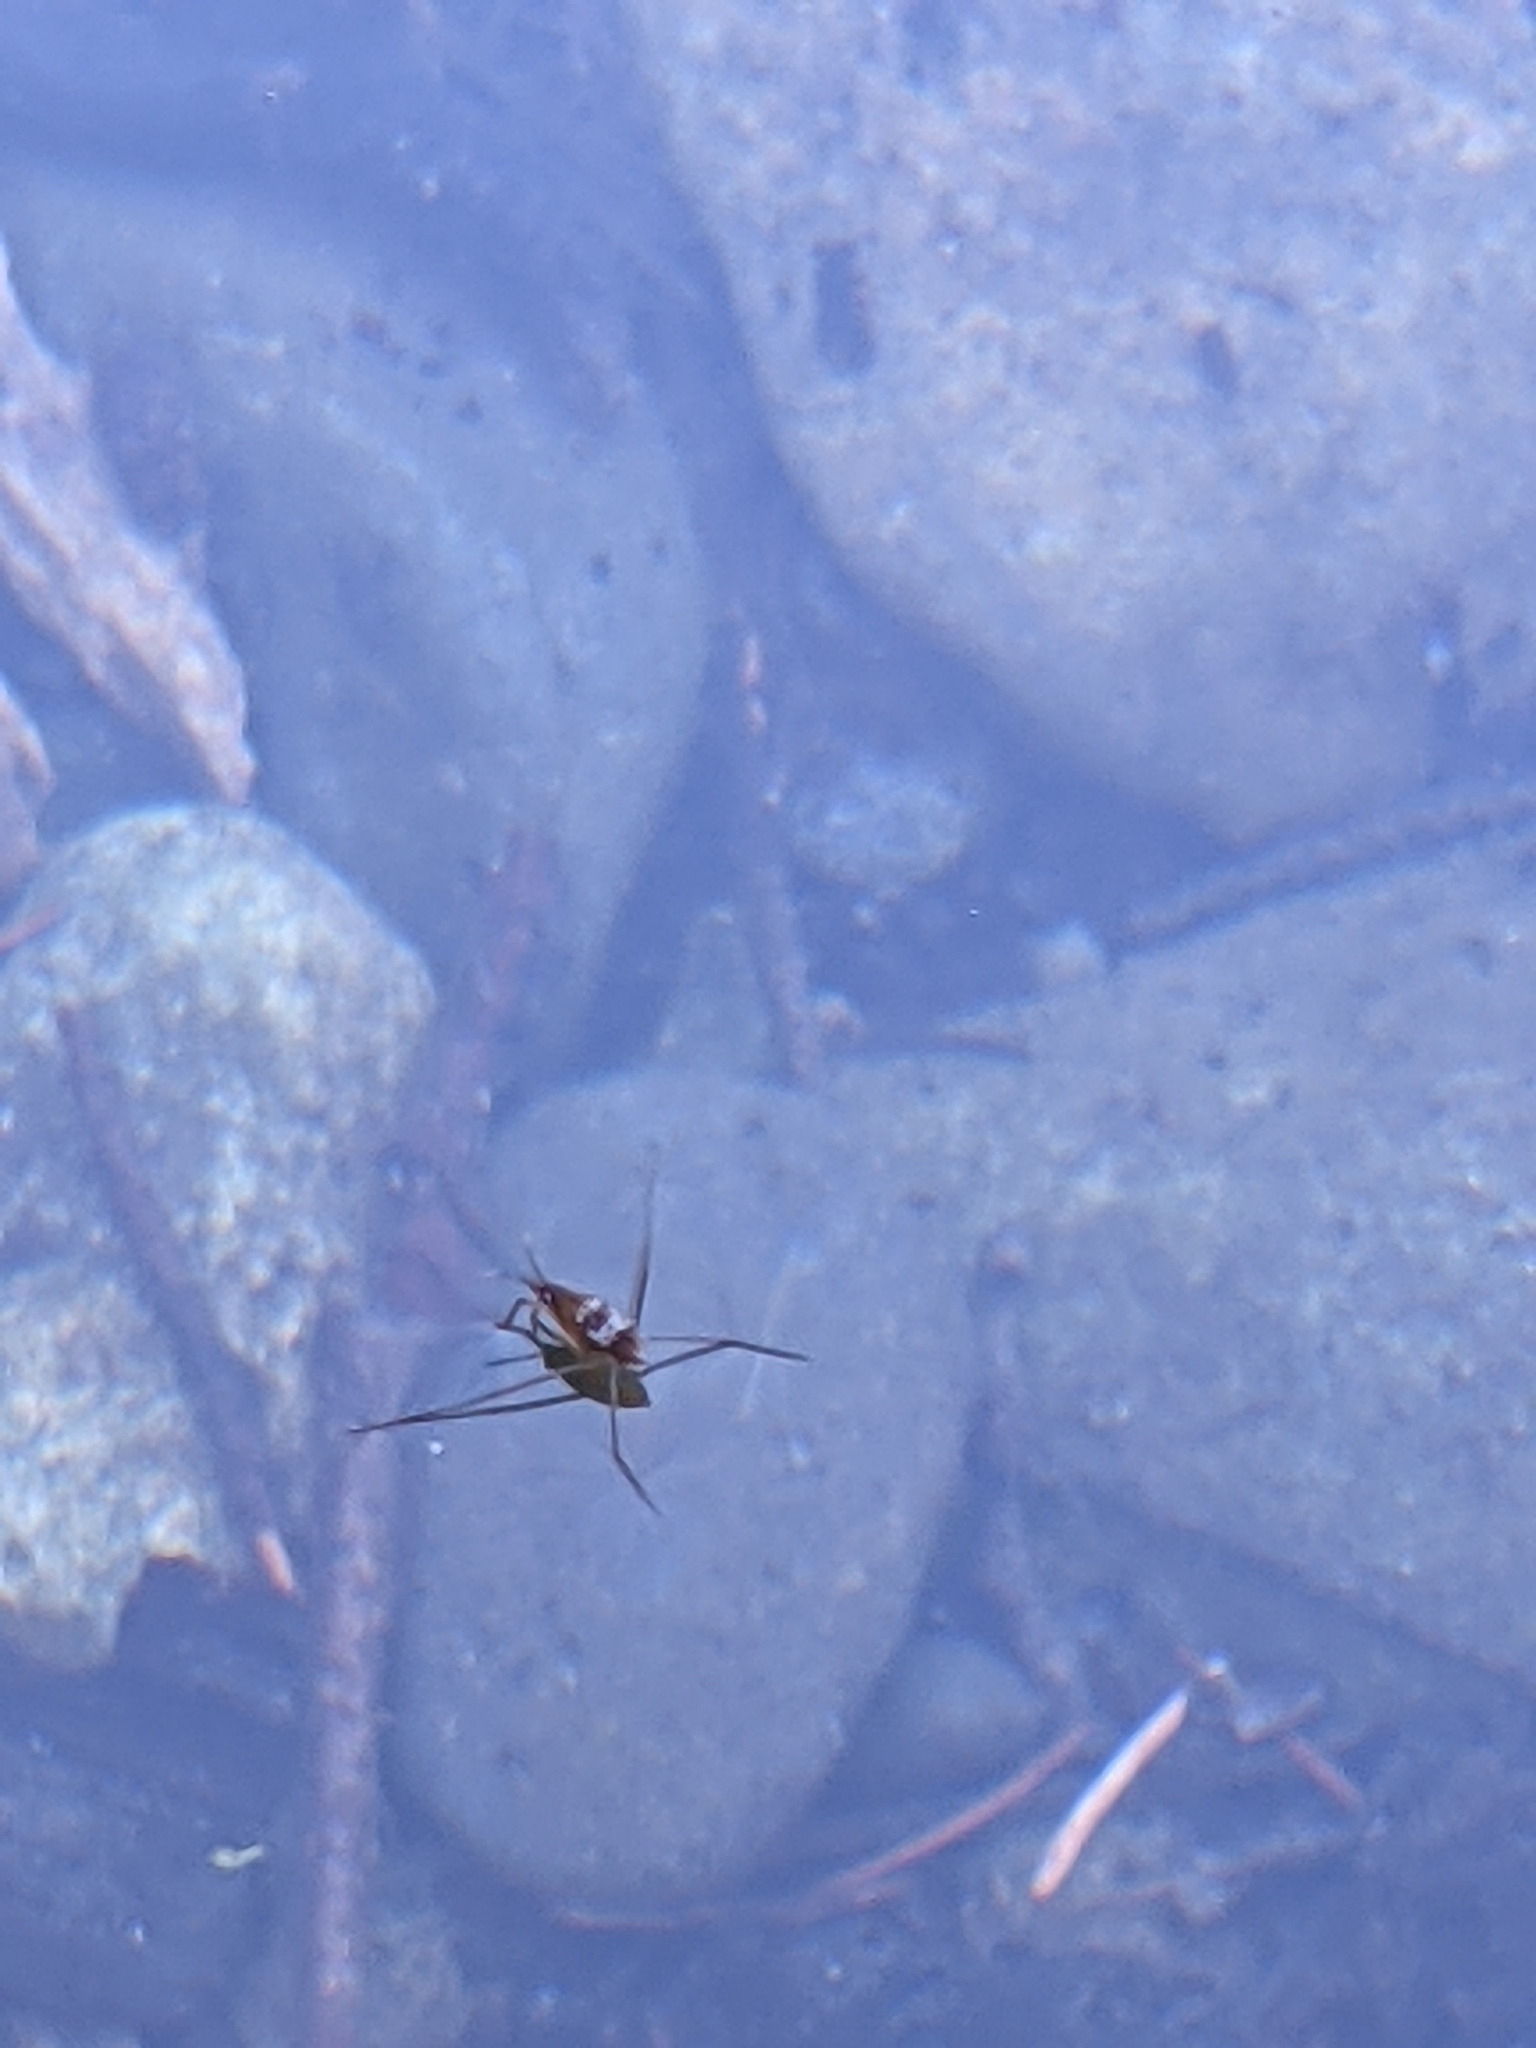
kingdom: Animalia
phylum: Arthropoda
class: Insecta
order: Hemiptera
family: Gerridae
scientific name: Gerridae
